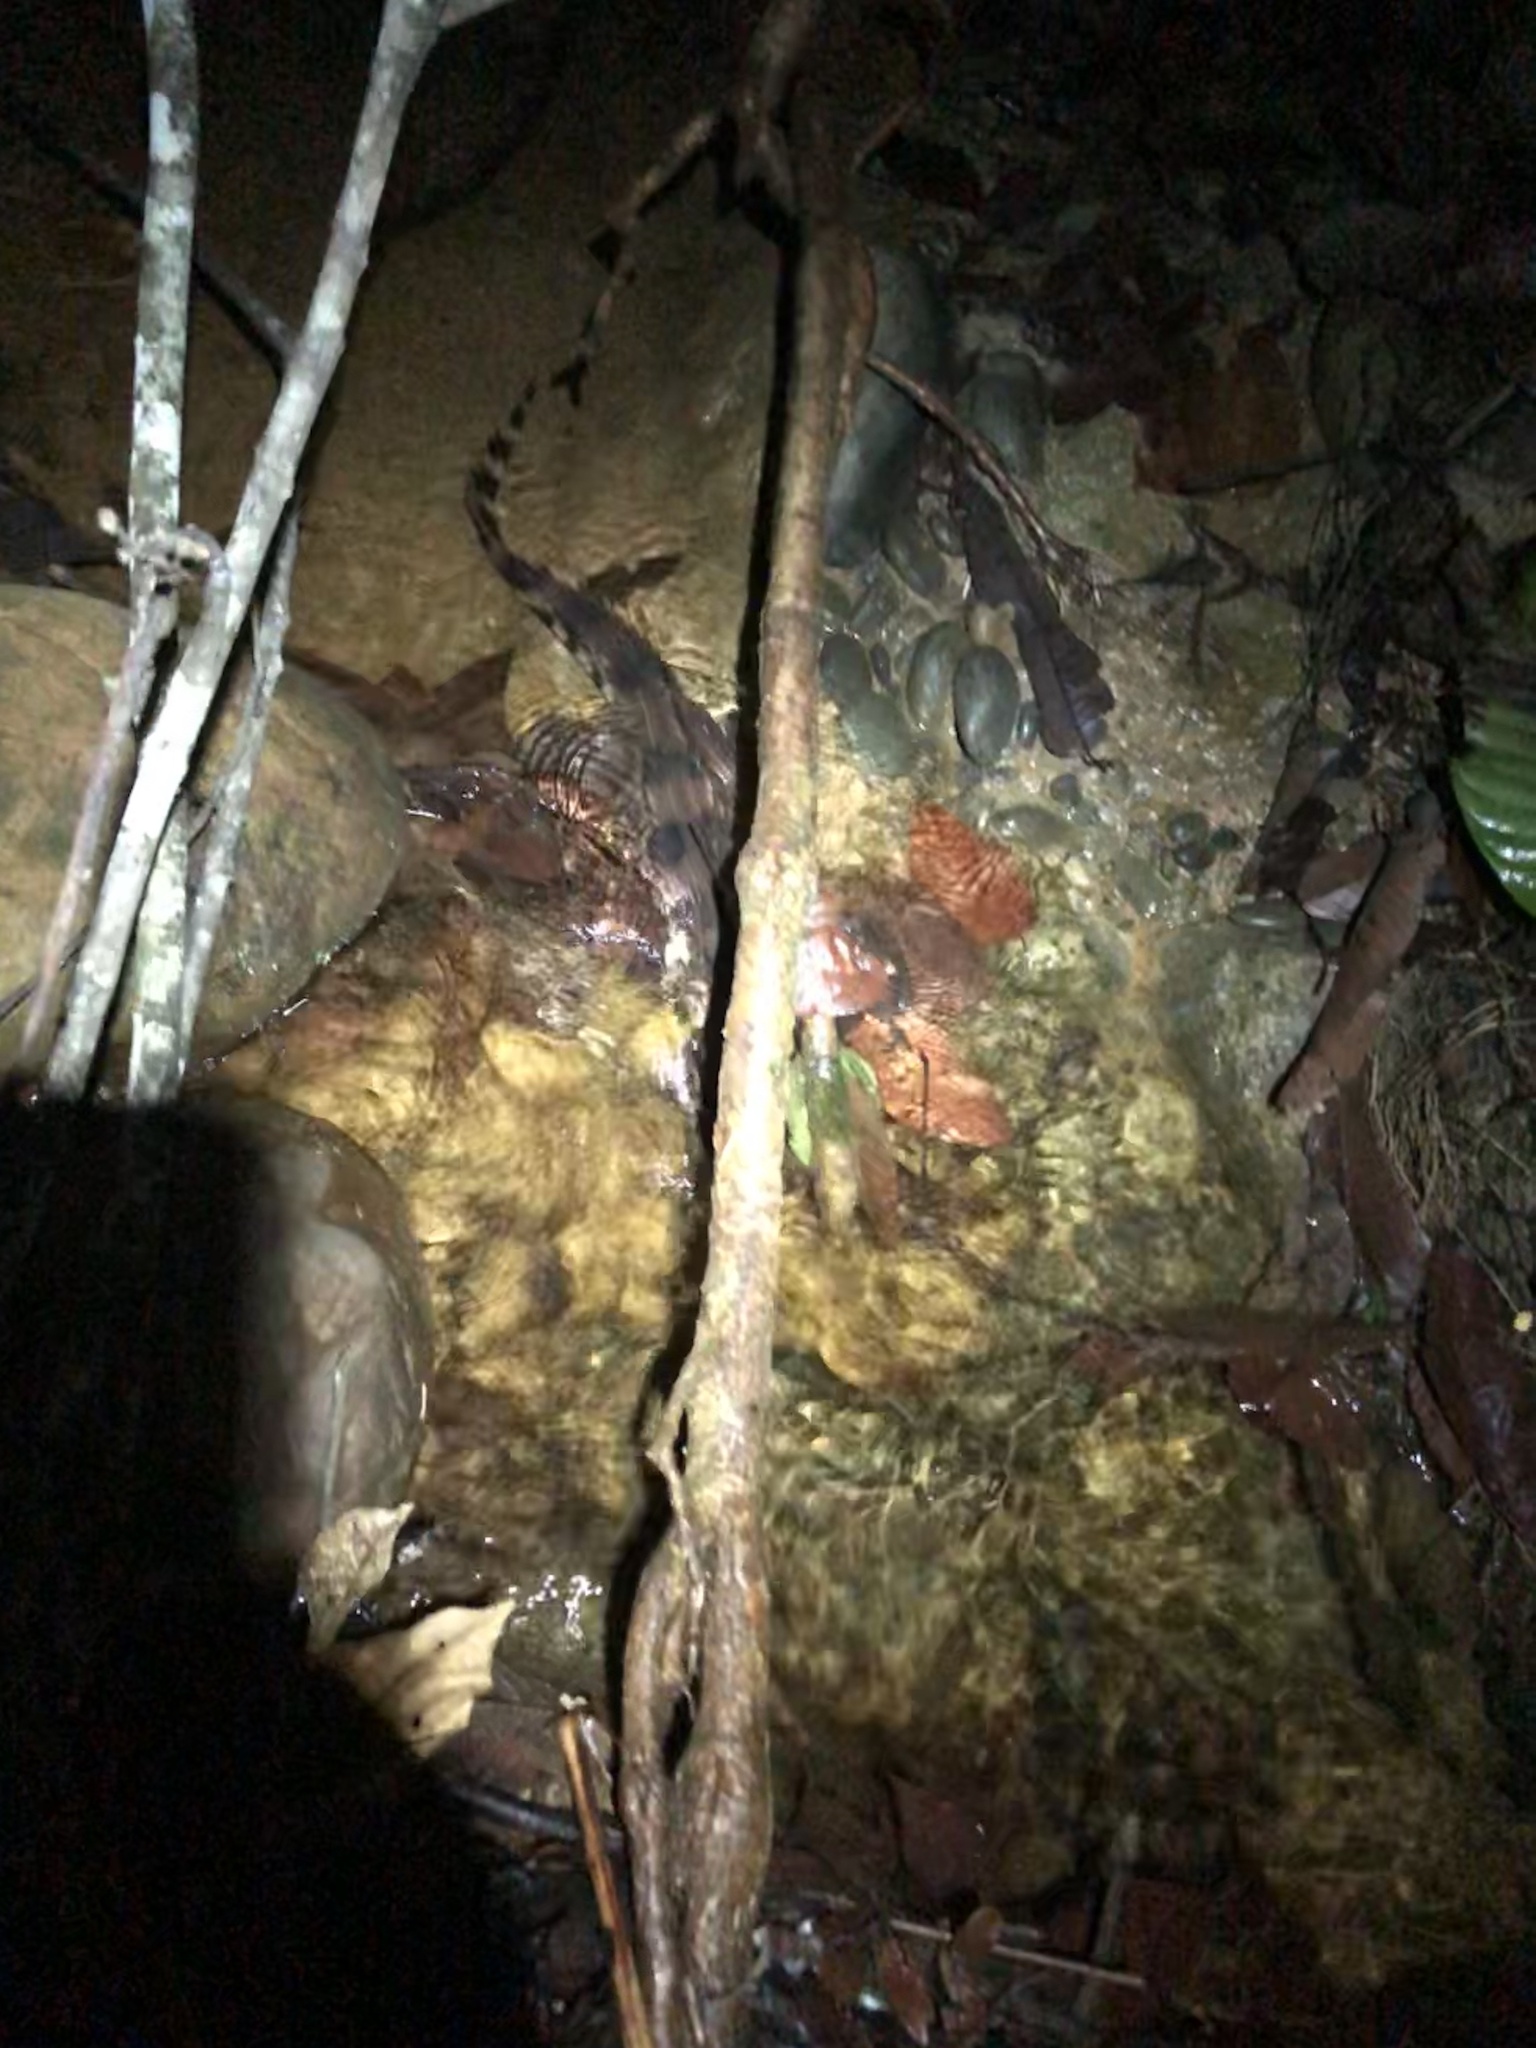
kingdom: Animalia
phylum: Chordata
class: Crocodylia
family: Alligatoridae
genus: Paleosuchus
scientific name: Paleosuchus trigonatus
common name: Schneider's smooth-fronted caiman
